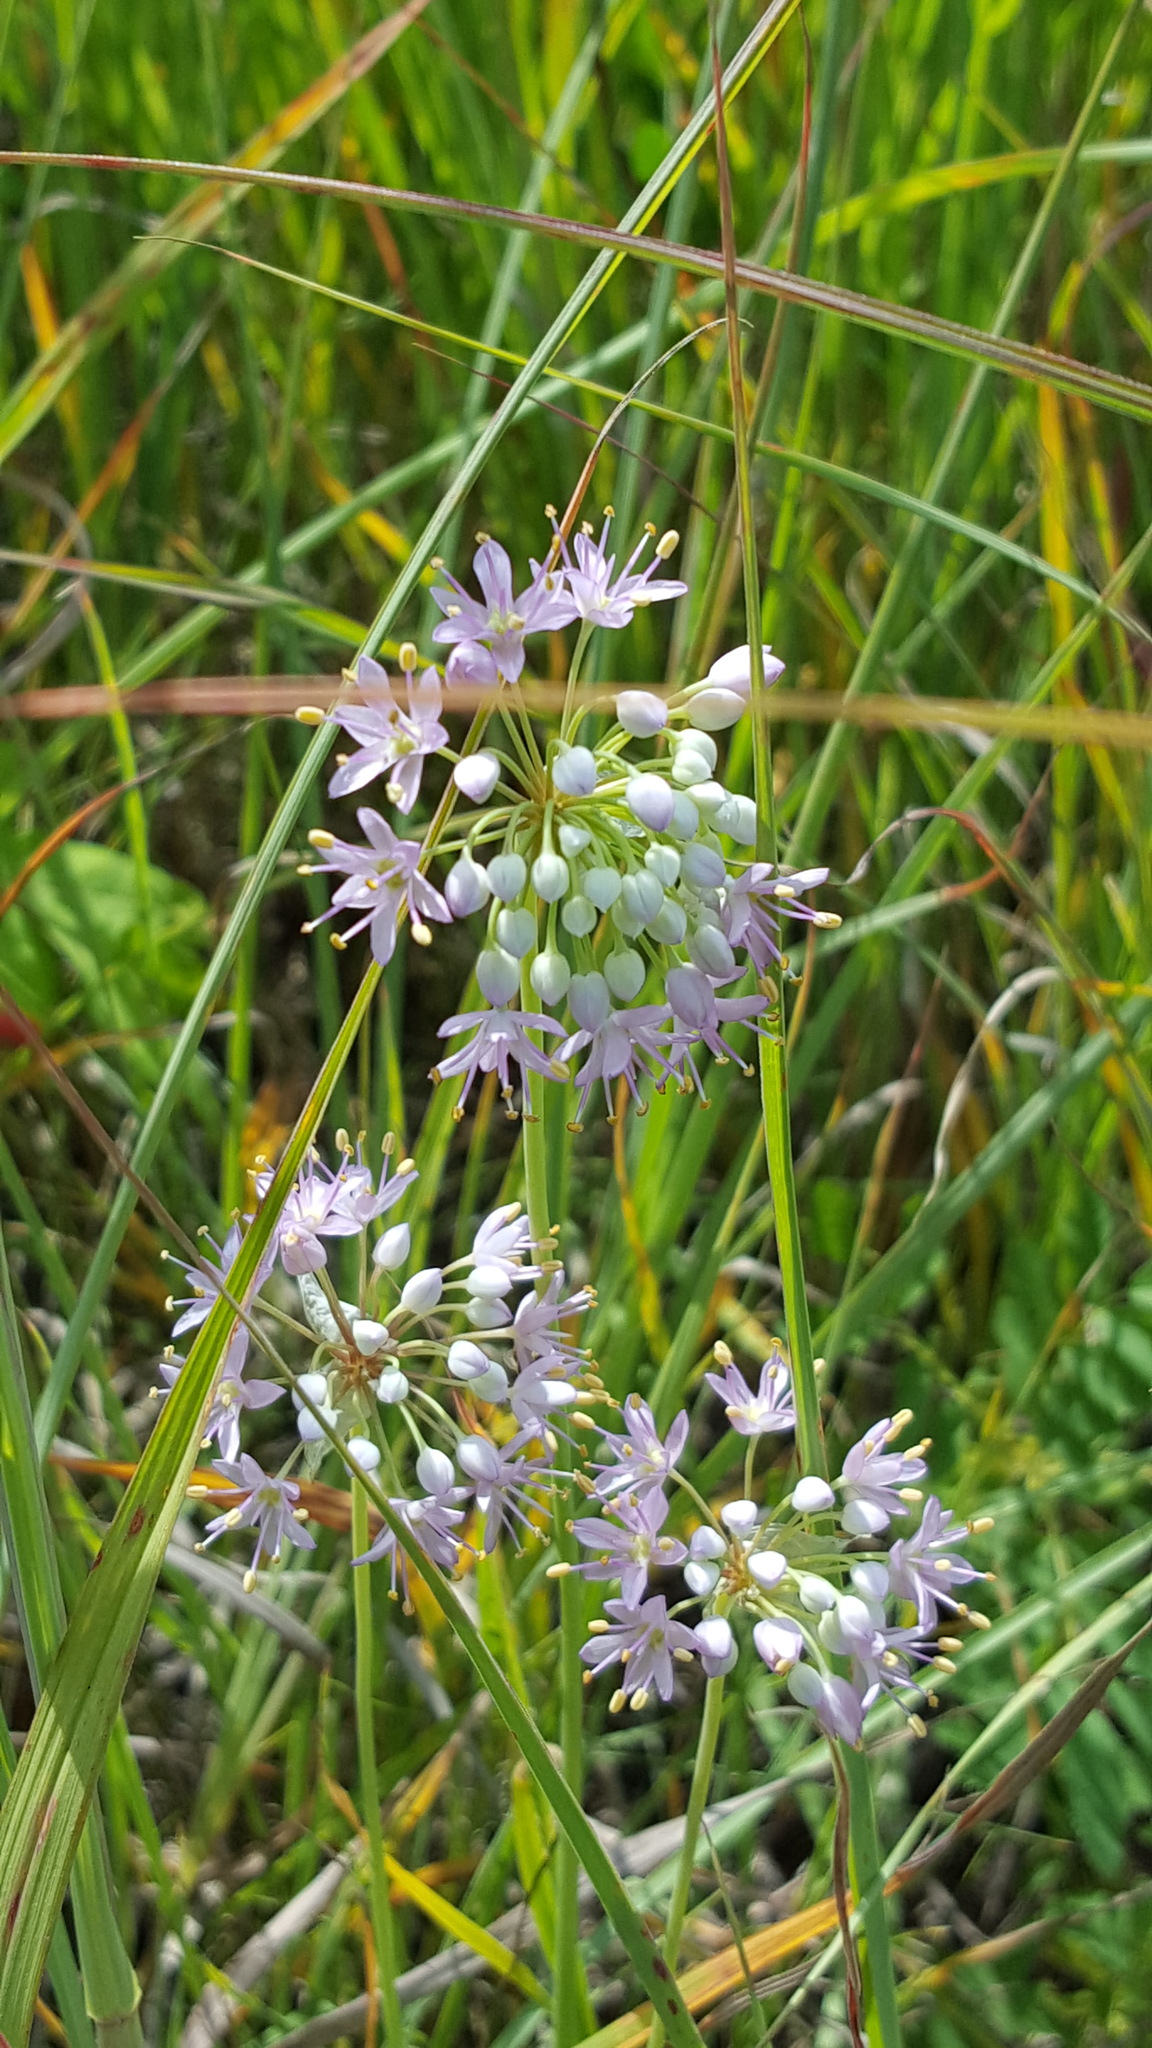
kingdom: Plantae
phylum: Tracheophyta
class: Liliopsida
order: Asparagales
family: Amaryllidaceae
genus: Allium
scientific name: Allium stellatum
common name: Autumn onion
